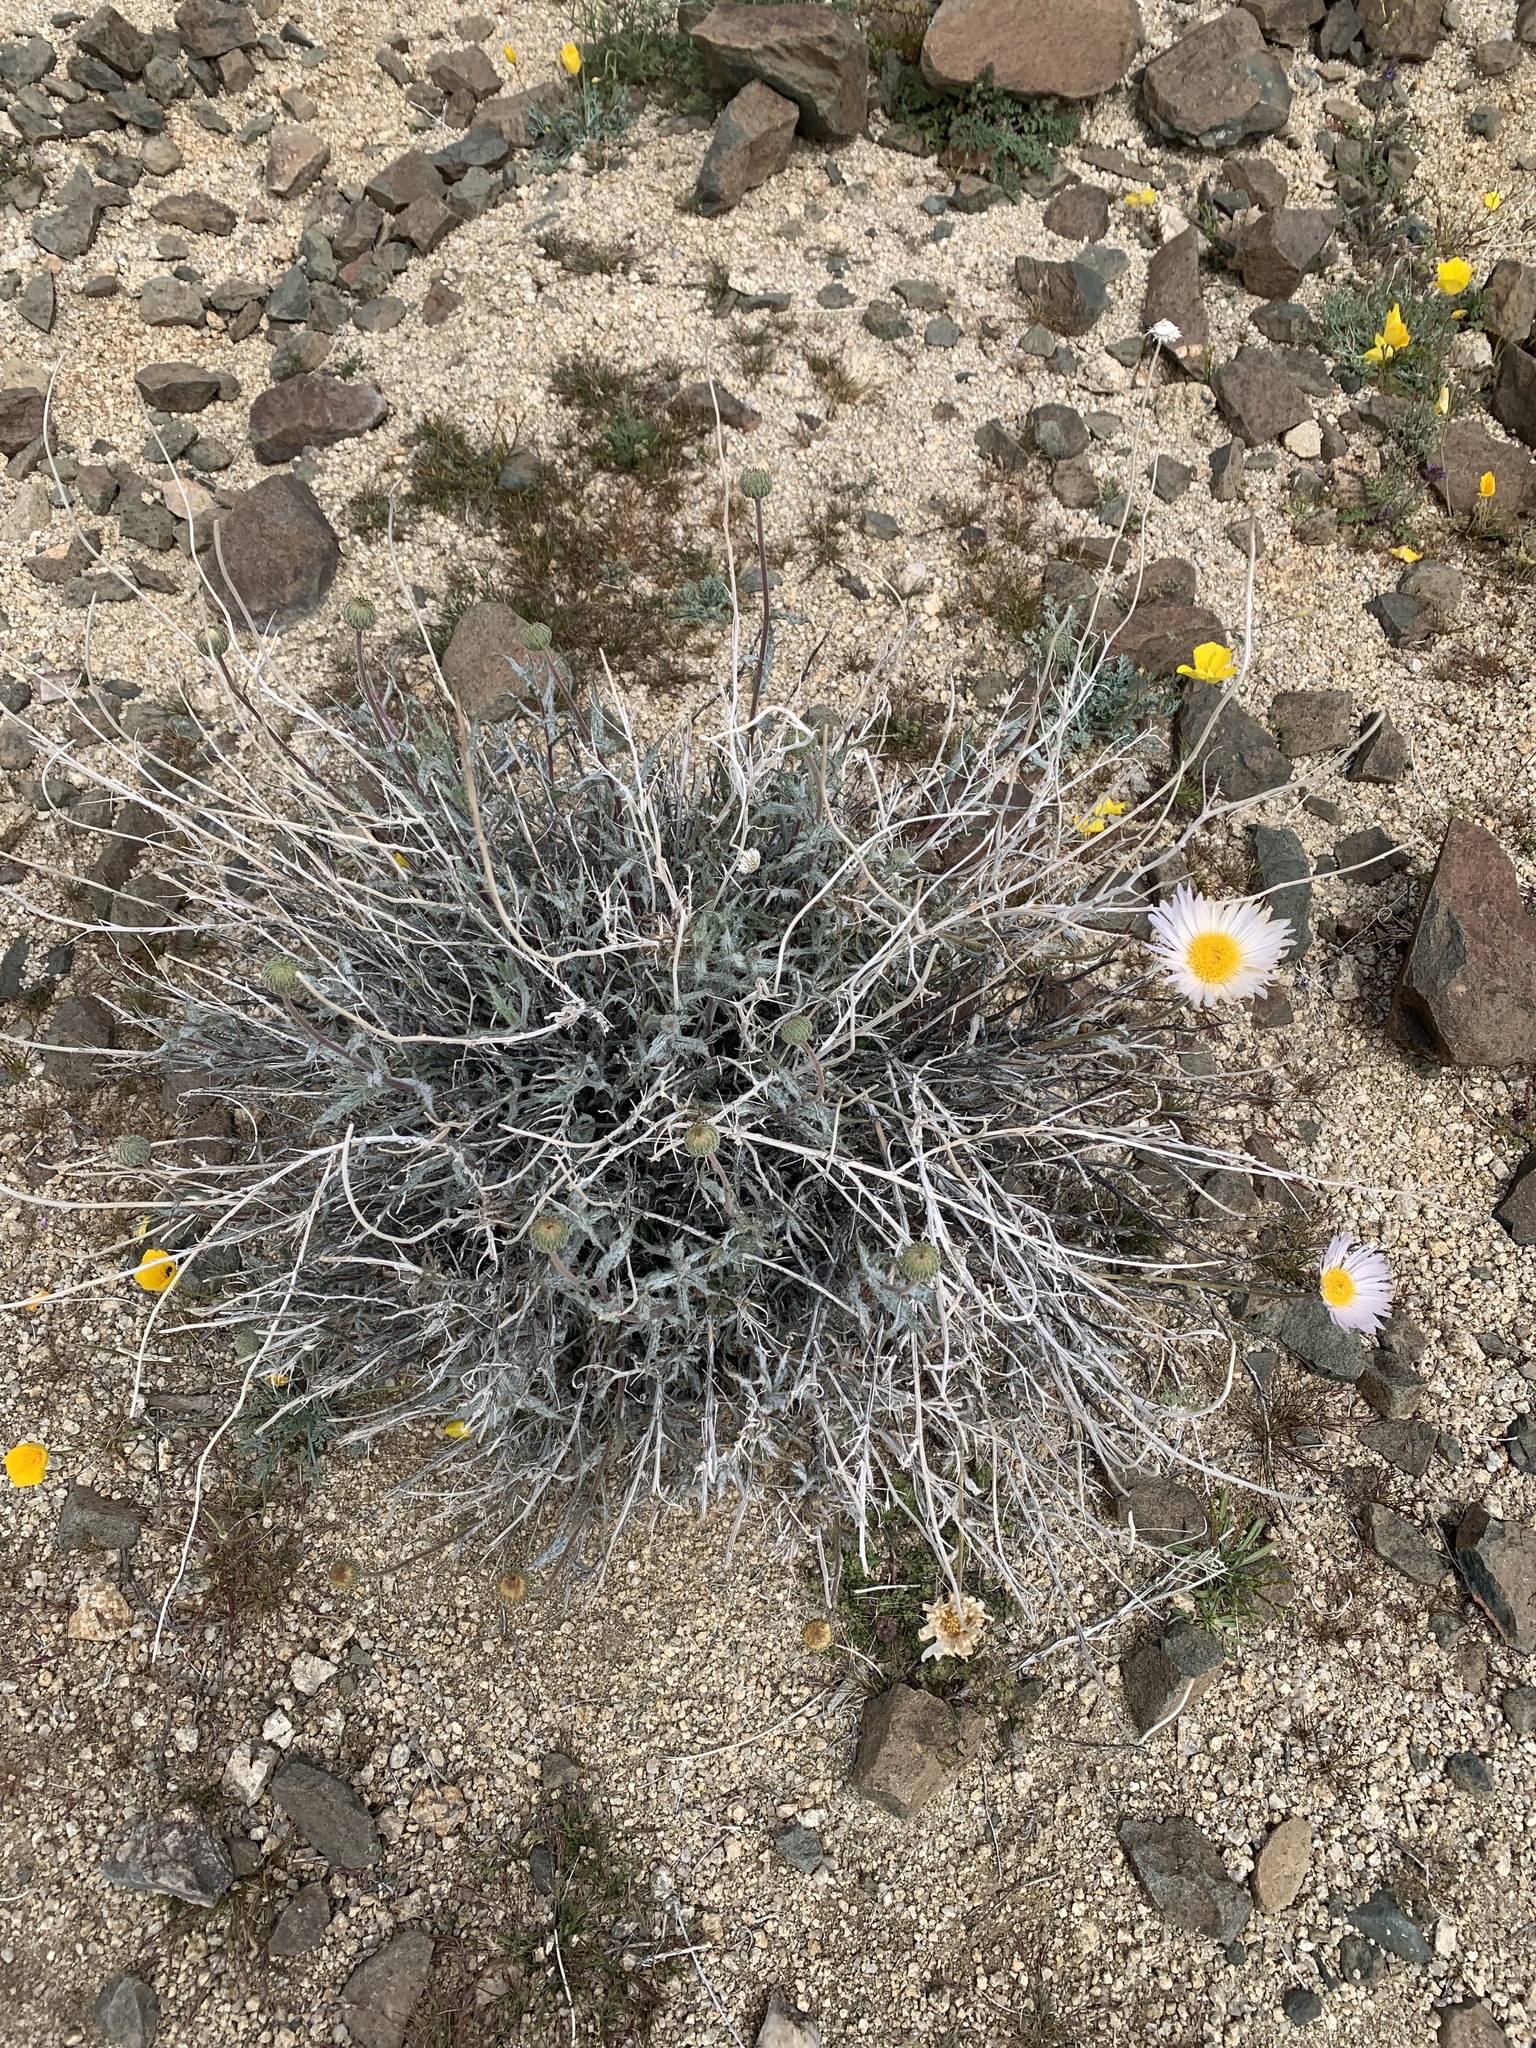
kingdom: Plantae
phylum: Tracheophyta
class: Magnoliopsida
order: Asterales
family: Asteraceae
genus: Xylorhiza
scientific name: Xylorhiza tortifolia
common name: Hurt-leaf woody-aster
